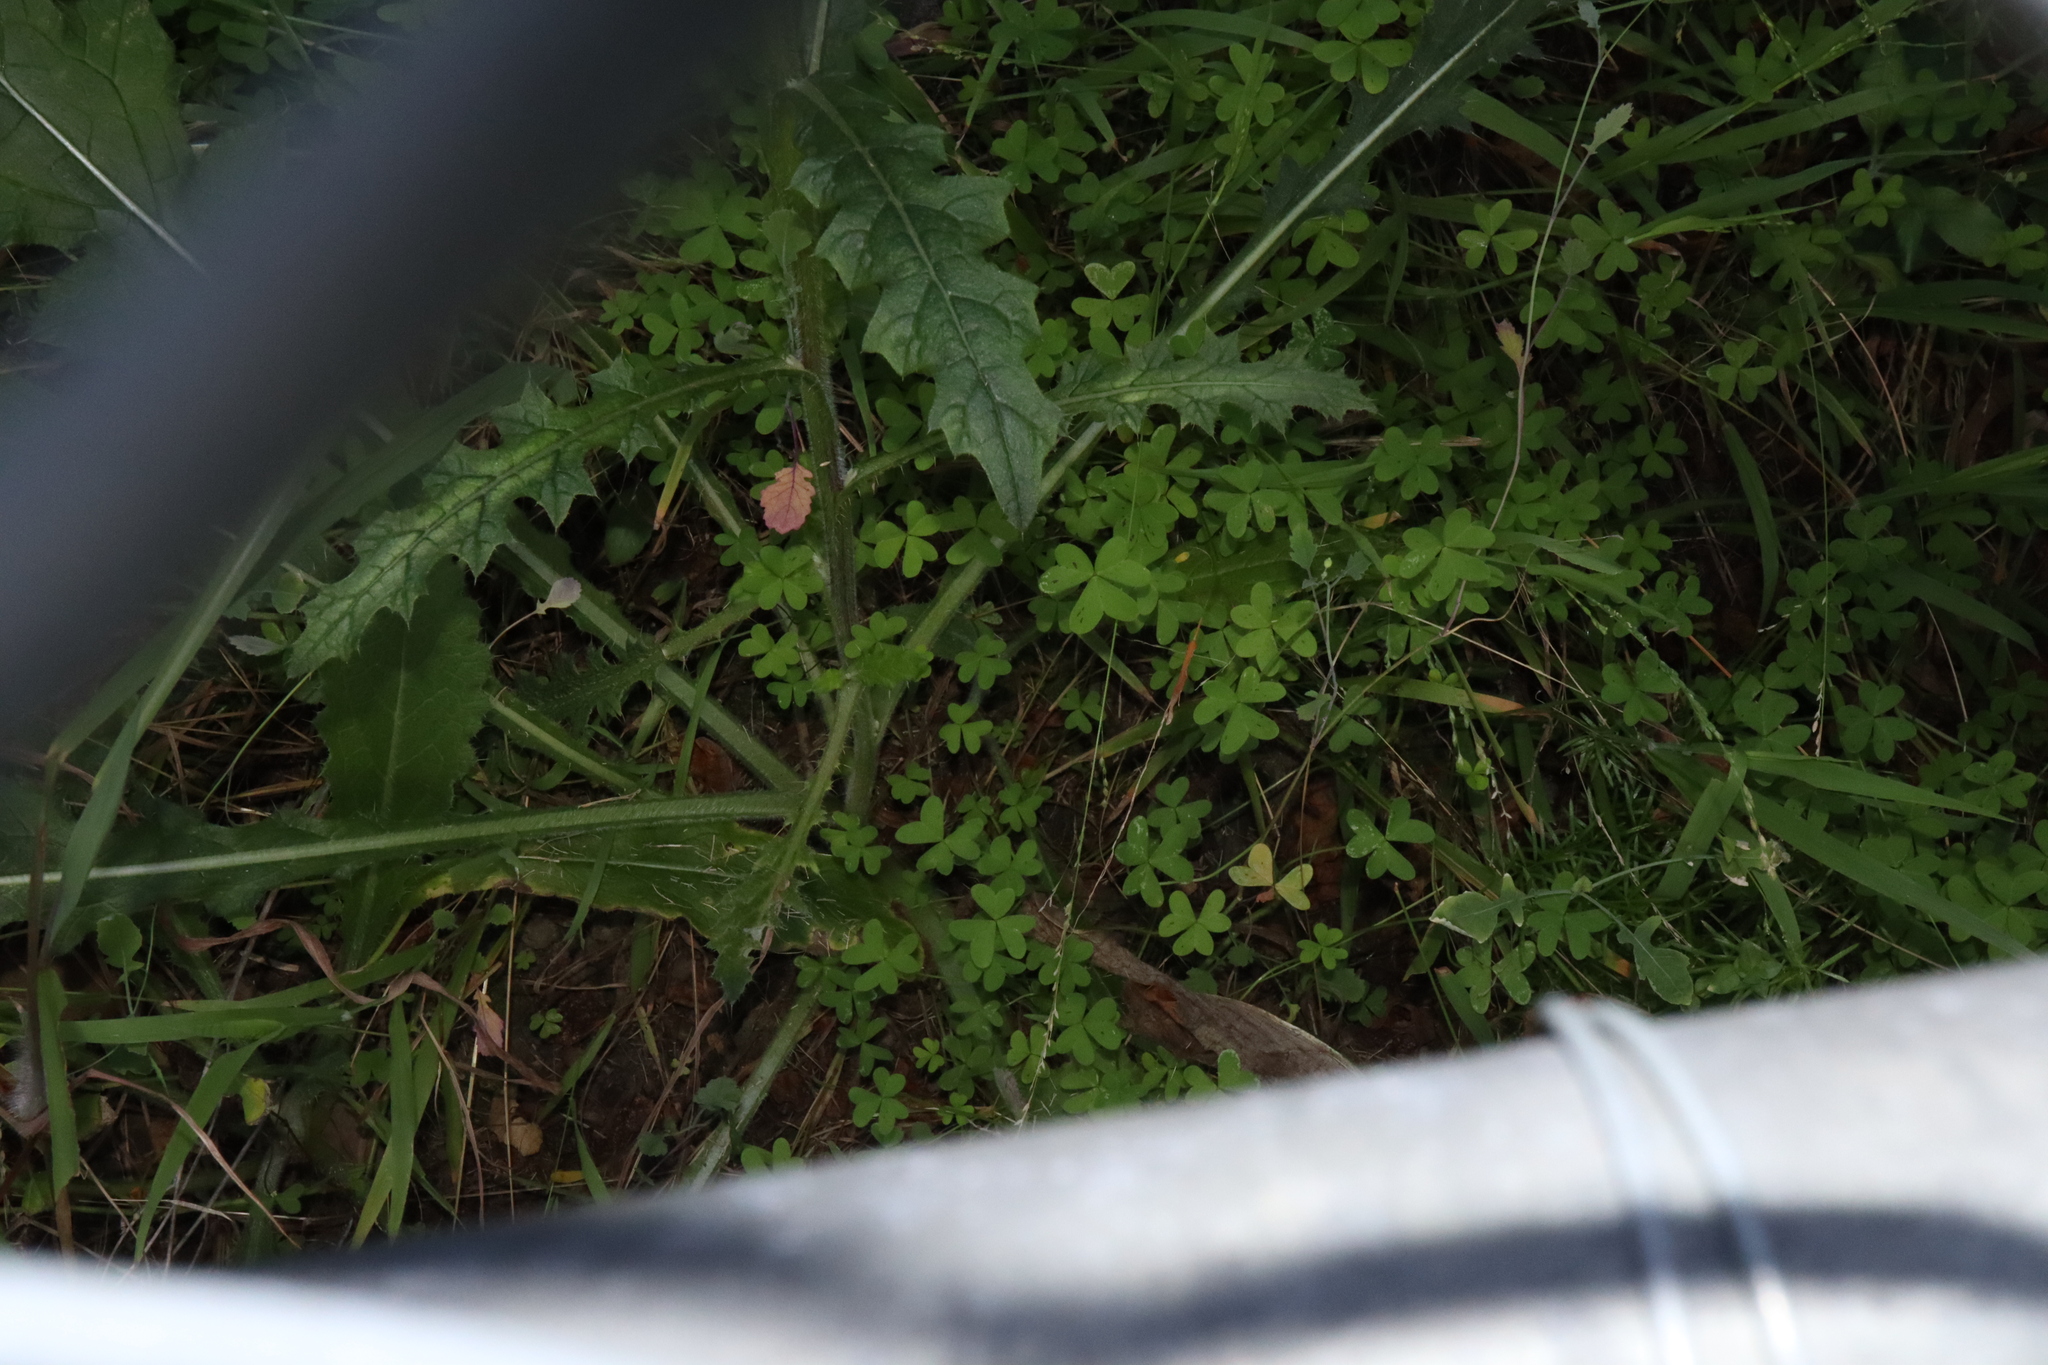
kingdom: Plantae
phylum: Tracheophyta
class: Magnoliopsida
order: Oxalidales
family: Oxalidaceae
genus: Oxalis
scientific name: Oxalis pes-caprae
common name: Bermuda-buttercup
